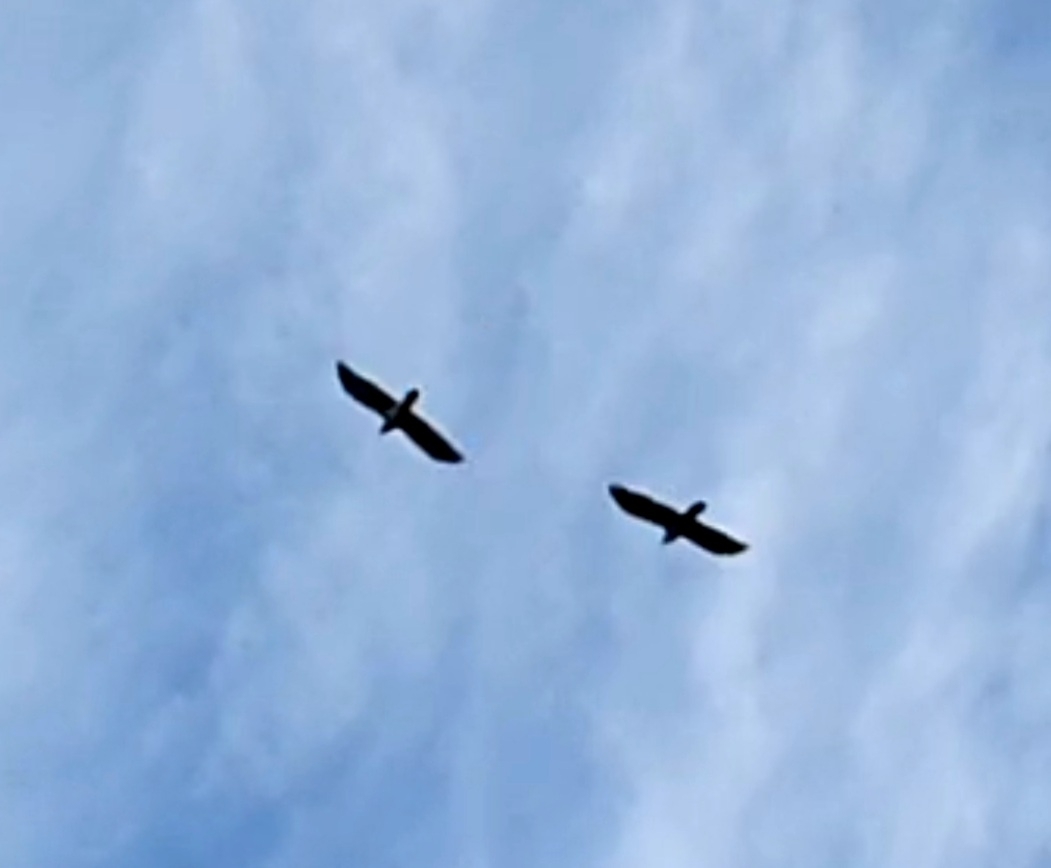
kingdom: Animalia
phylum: Chordata
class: Aves
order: Passeriformes
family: Corvidae
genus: Corvus
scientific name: Corvus corax
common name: Common raven
